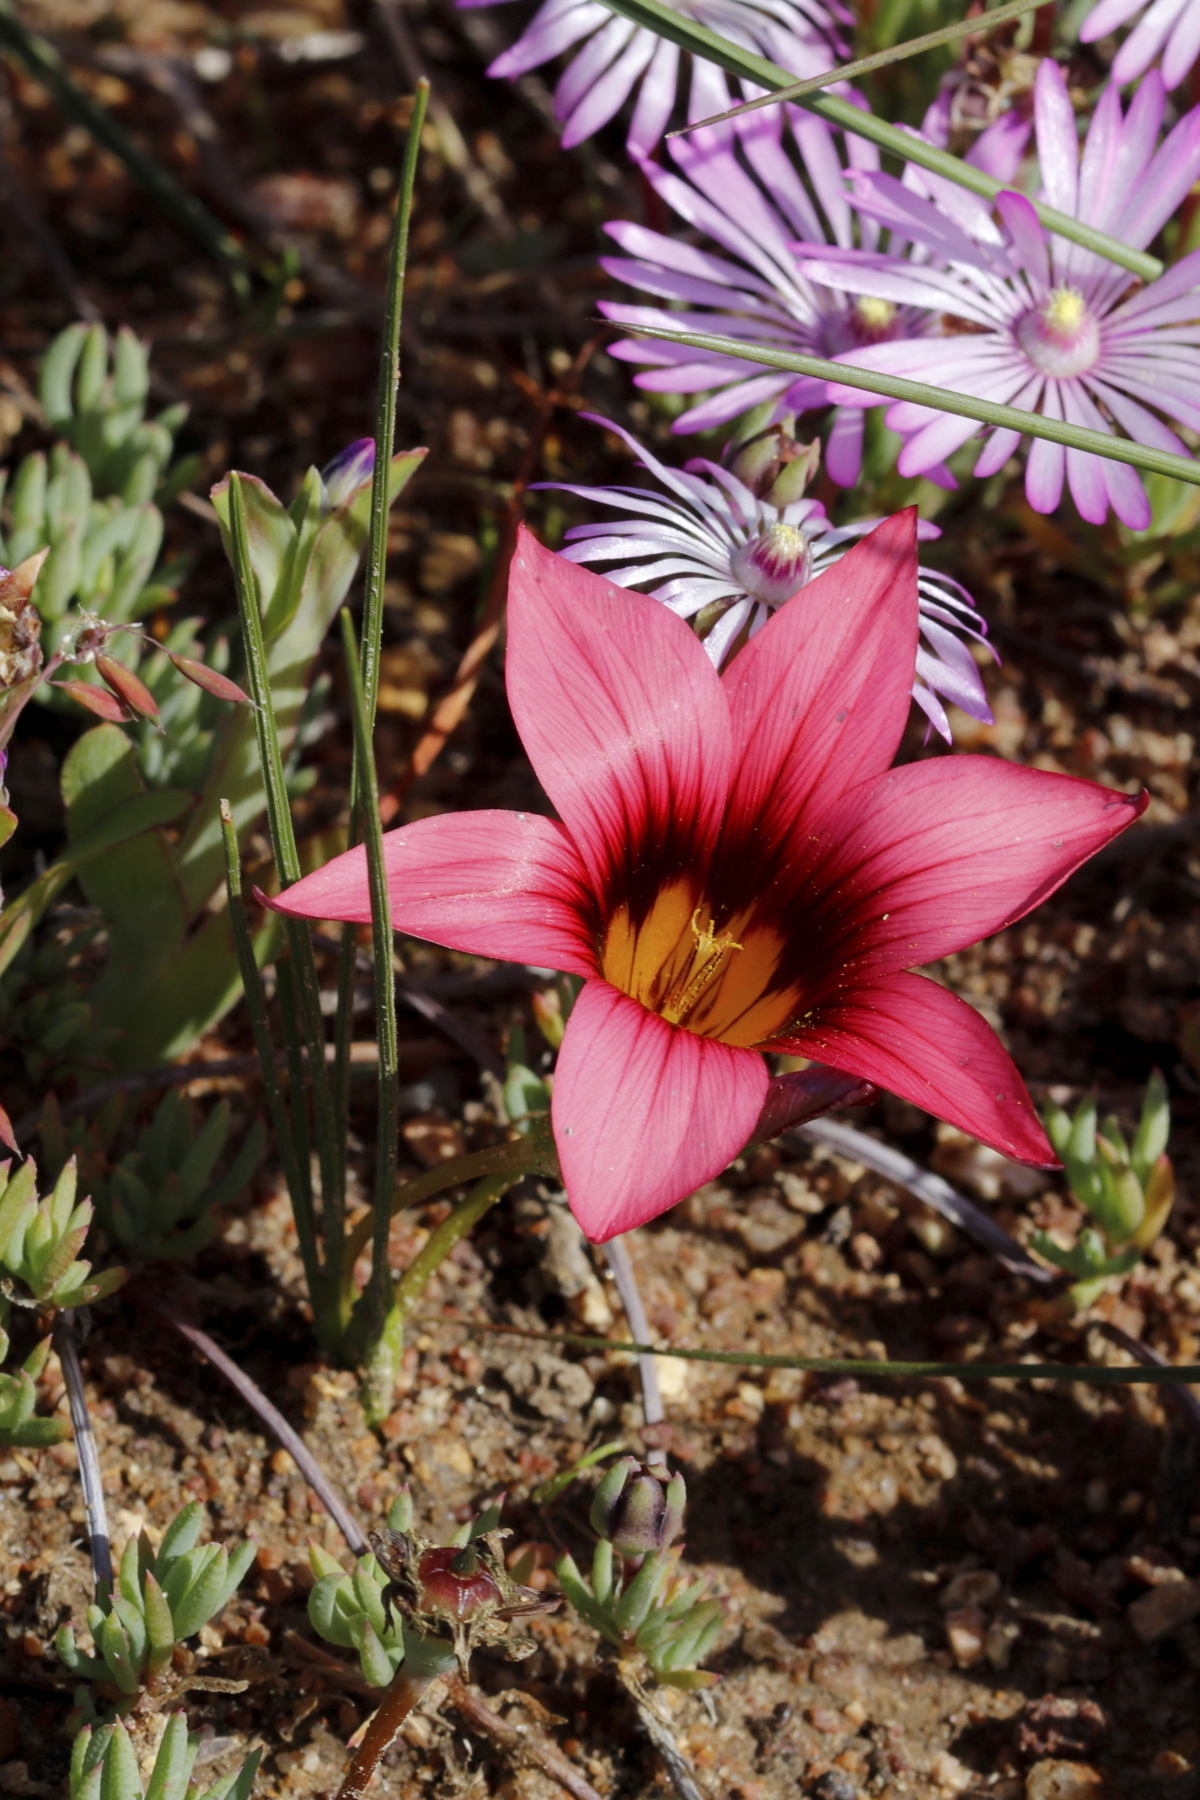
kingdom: Plantae
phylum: Tracheophyta
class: Liliopsida
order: Asparagales
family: Iridaceae
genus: Romulea
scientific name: Romulea hirsuta
